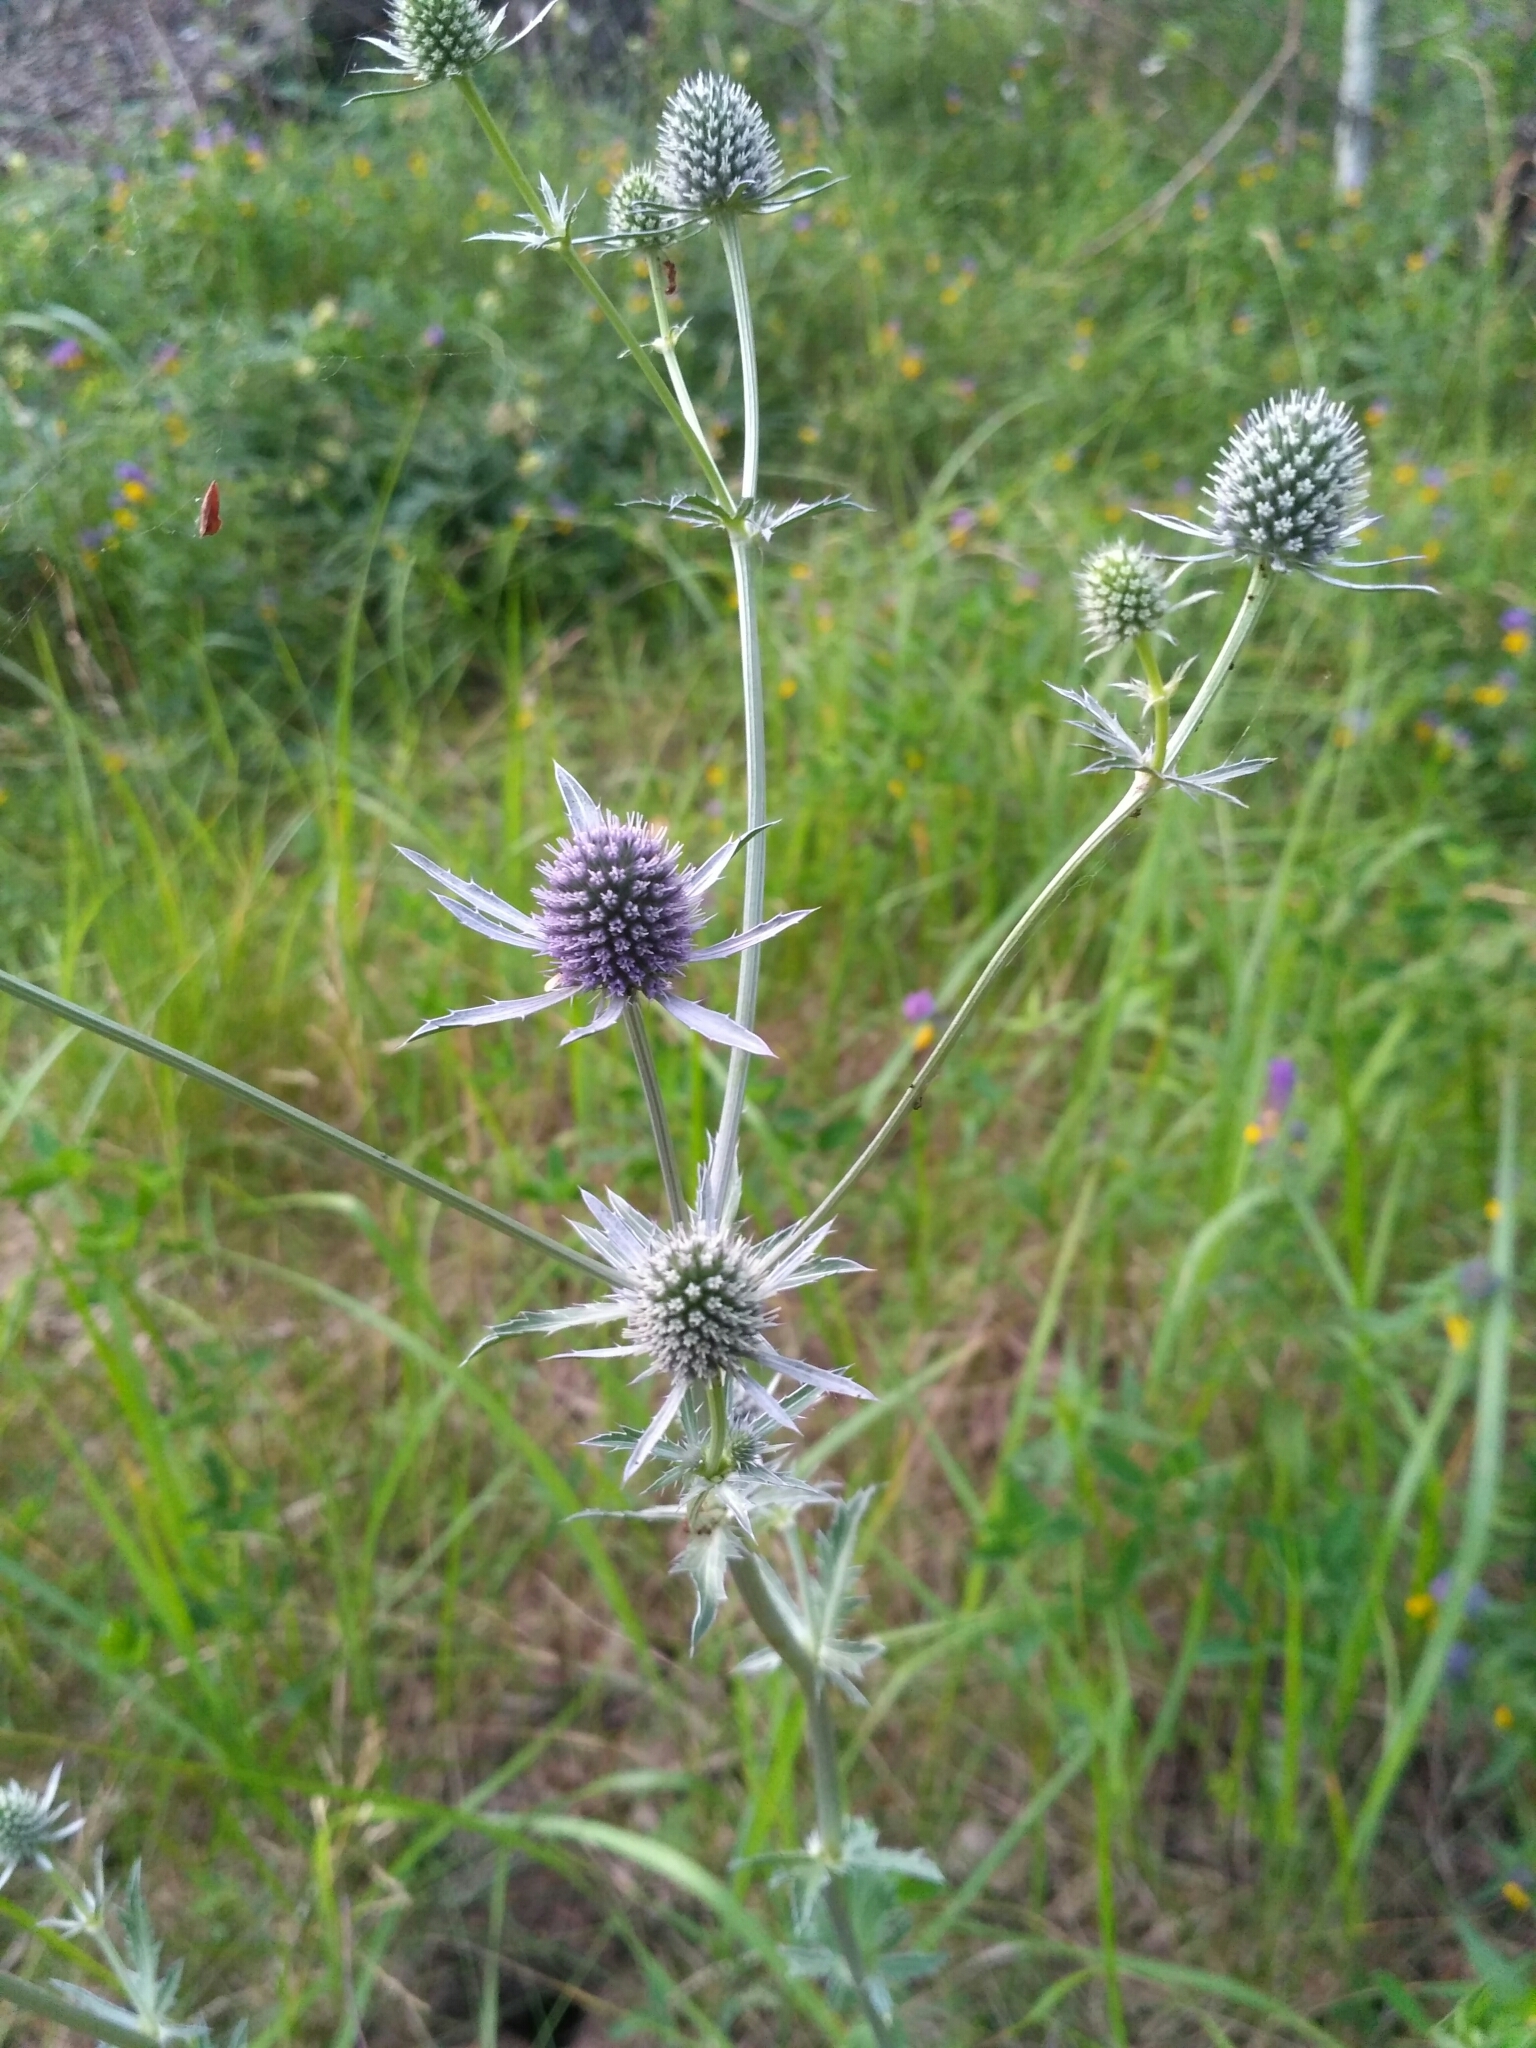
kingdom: Plantae
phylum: Tracheophyta
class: Magnoliopsida
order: Apiales
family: Apiaceae
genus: Eryngium
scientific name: Eryngium planum
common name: Blue eryngo
